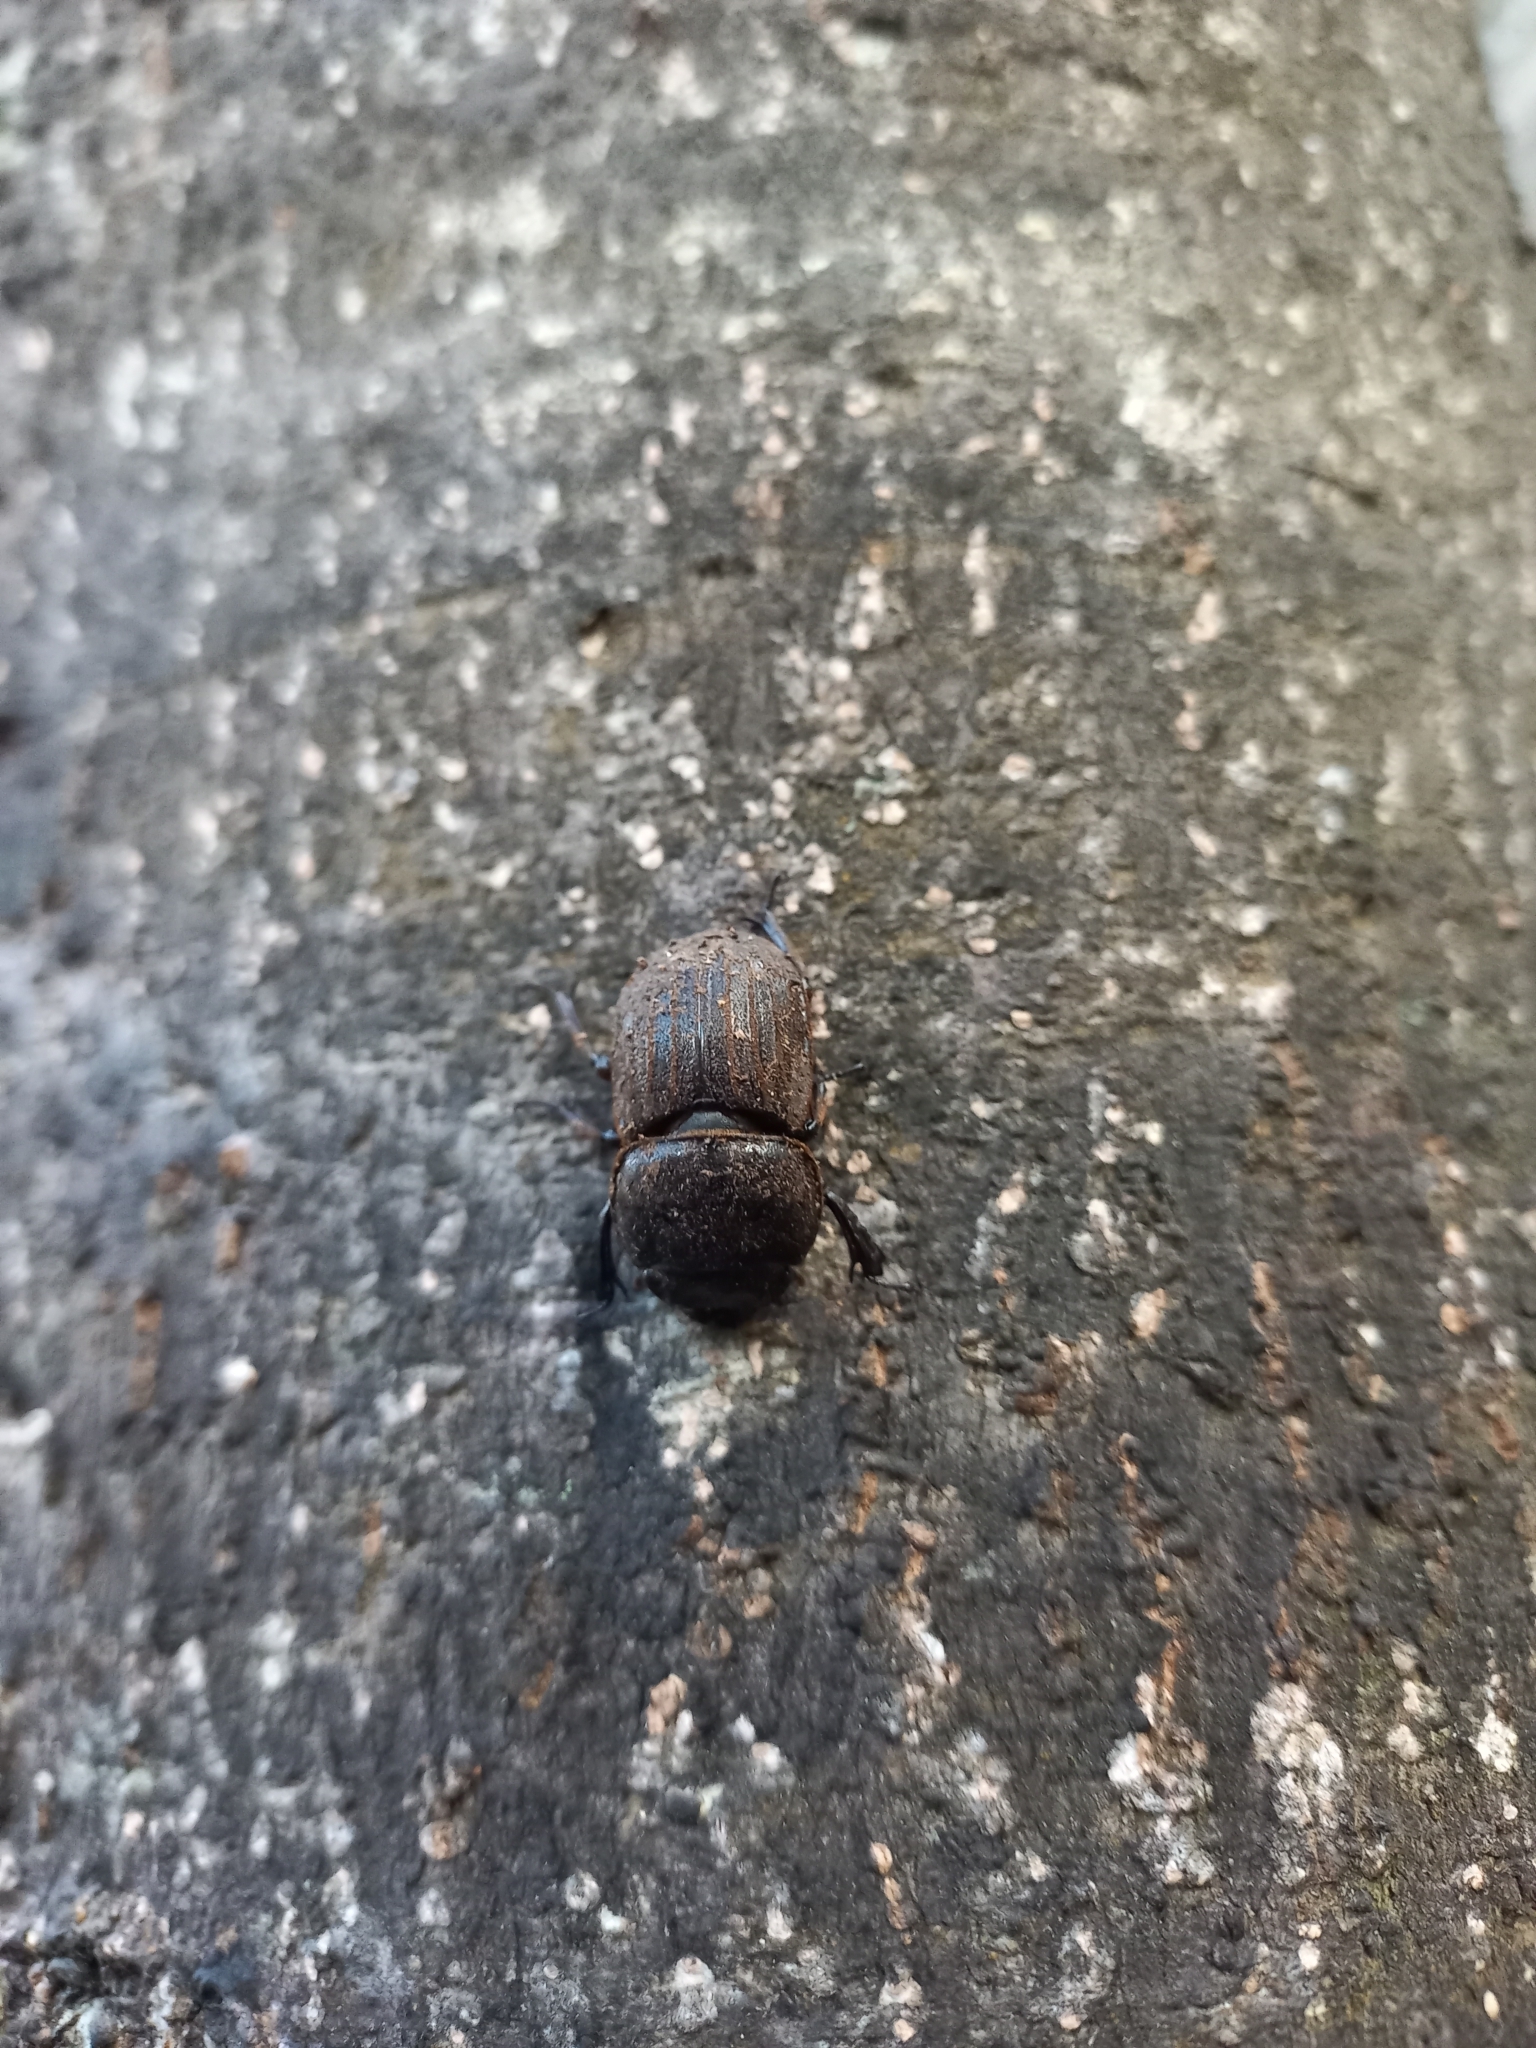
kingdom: Animalia
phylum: Arthropoda
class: Insecta
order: Coleoptera
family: Lucanidae
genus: Geodorcus
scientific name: Geodorcus helmsi
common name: Helm's stag beetle
